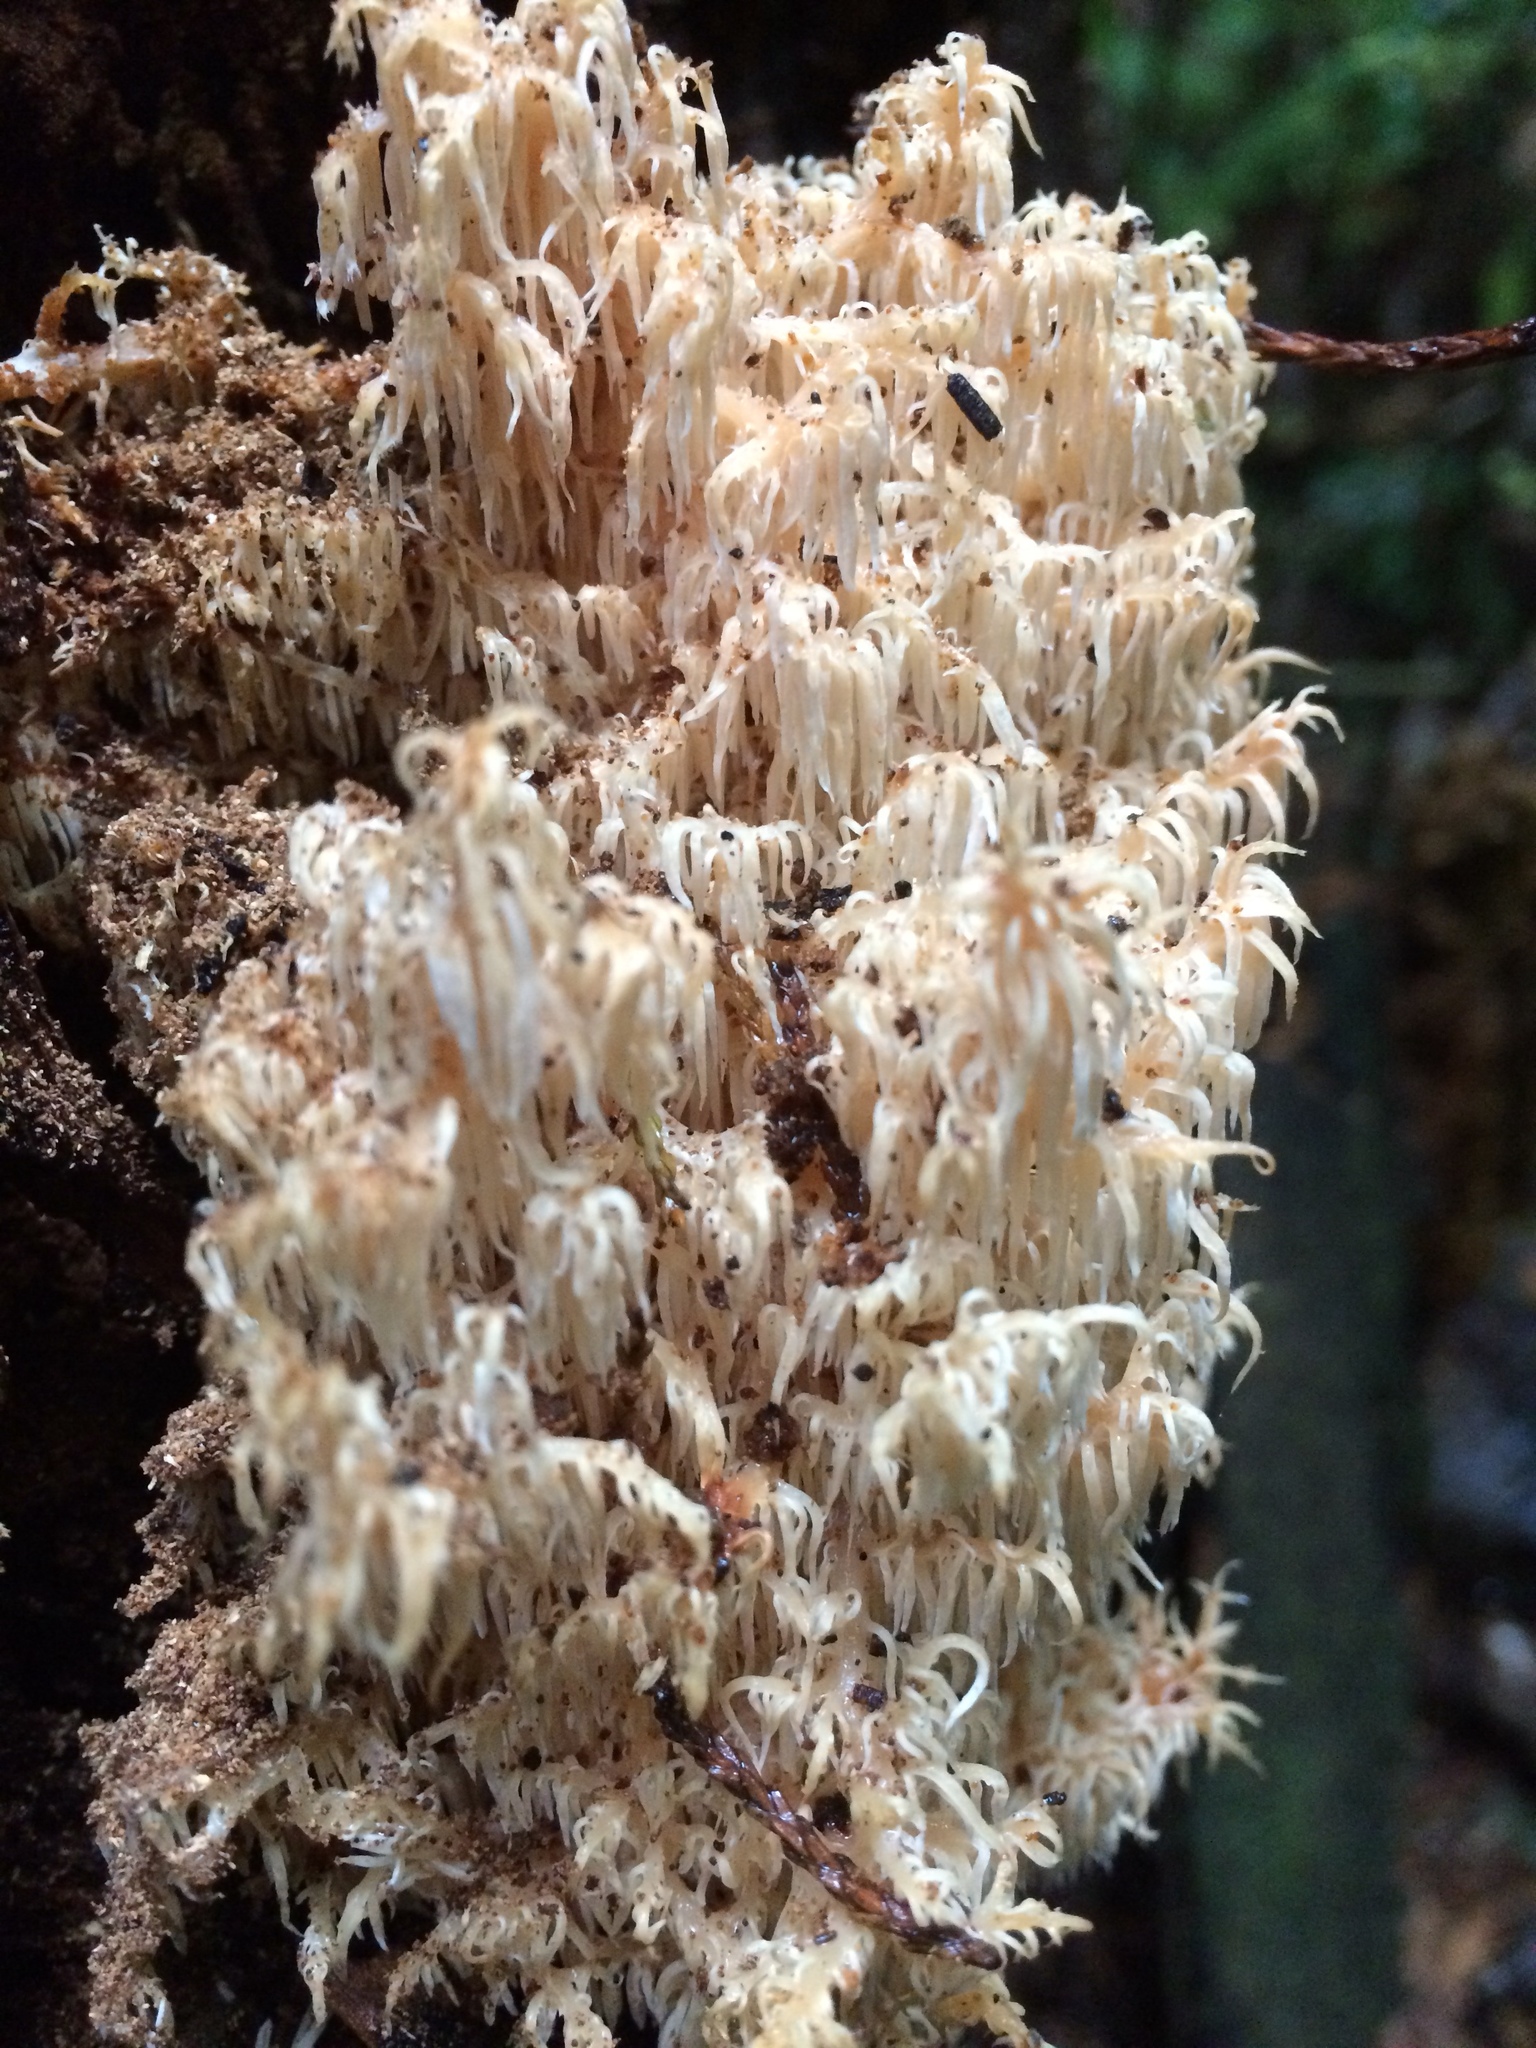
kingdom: Fungi
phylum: Basidiomycota
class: Agaricomycetes
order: Russulales
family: Hericiaceae
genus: Hericium
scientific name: Hericium novae-zealandiae
